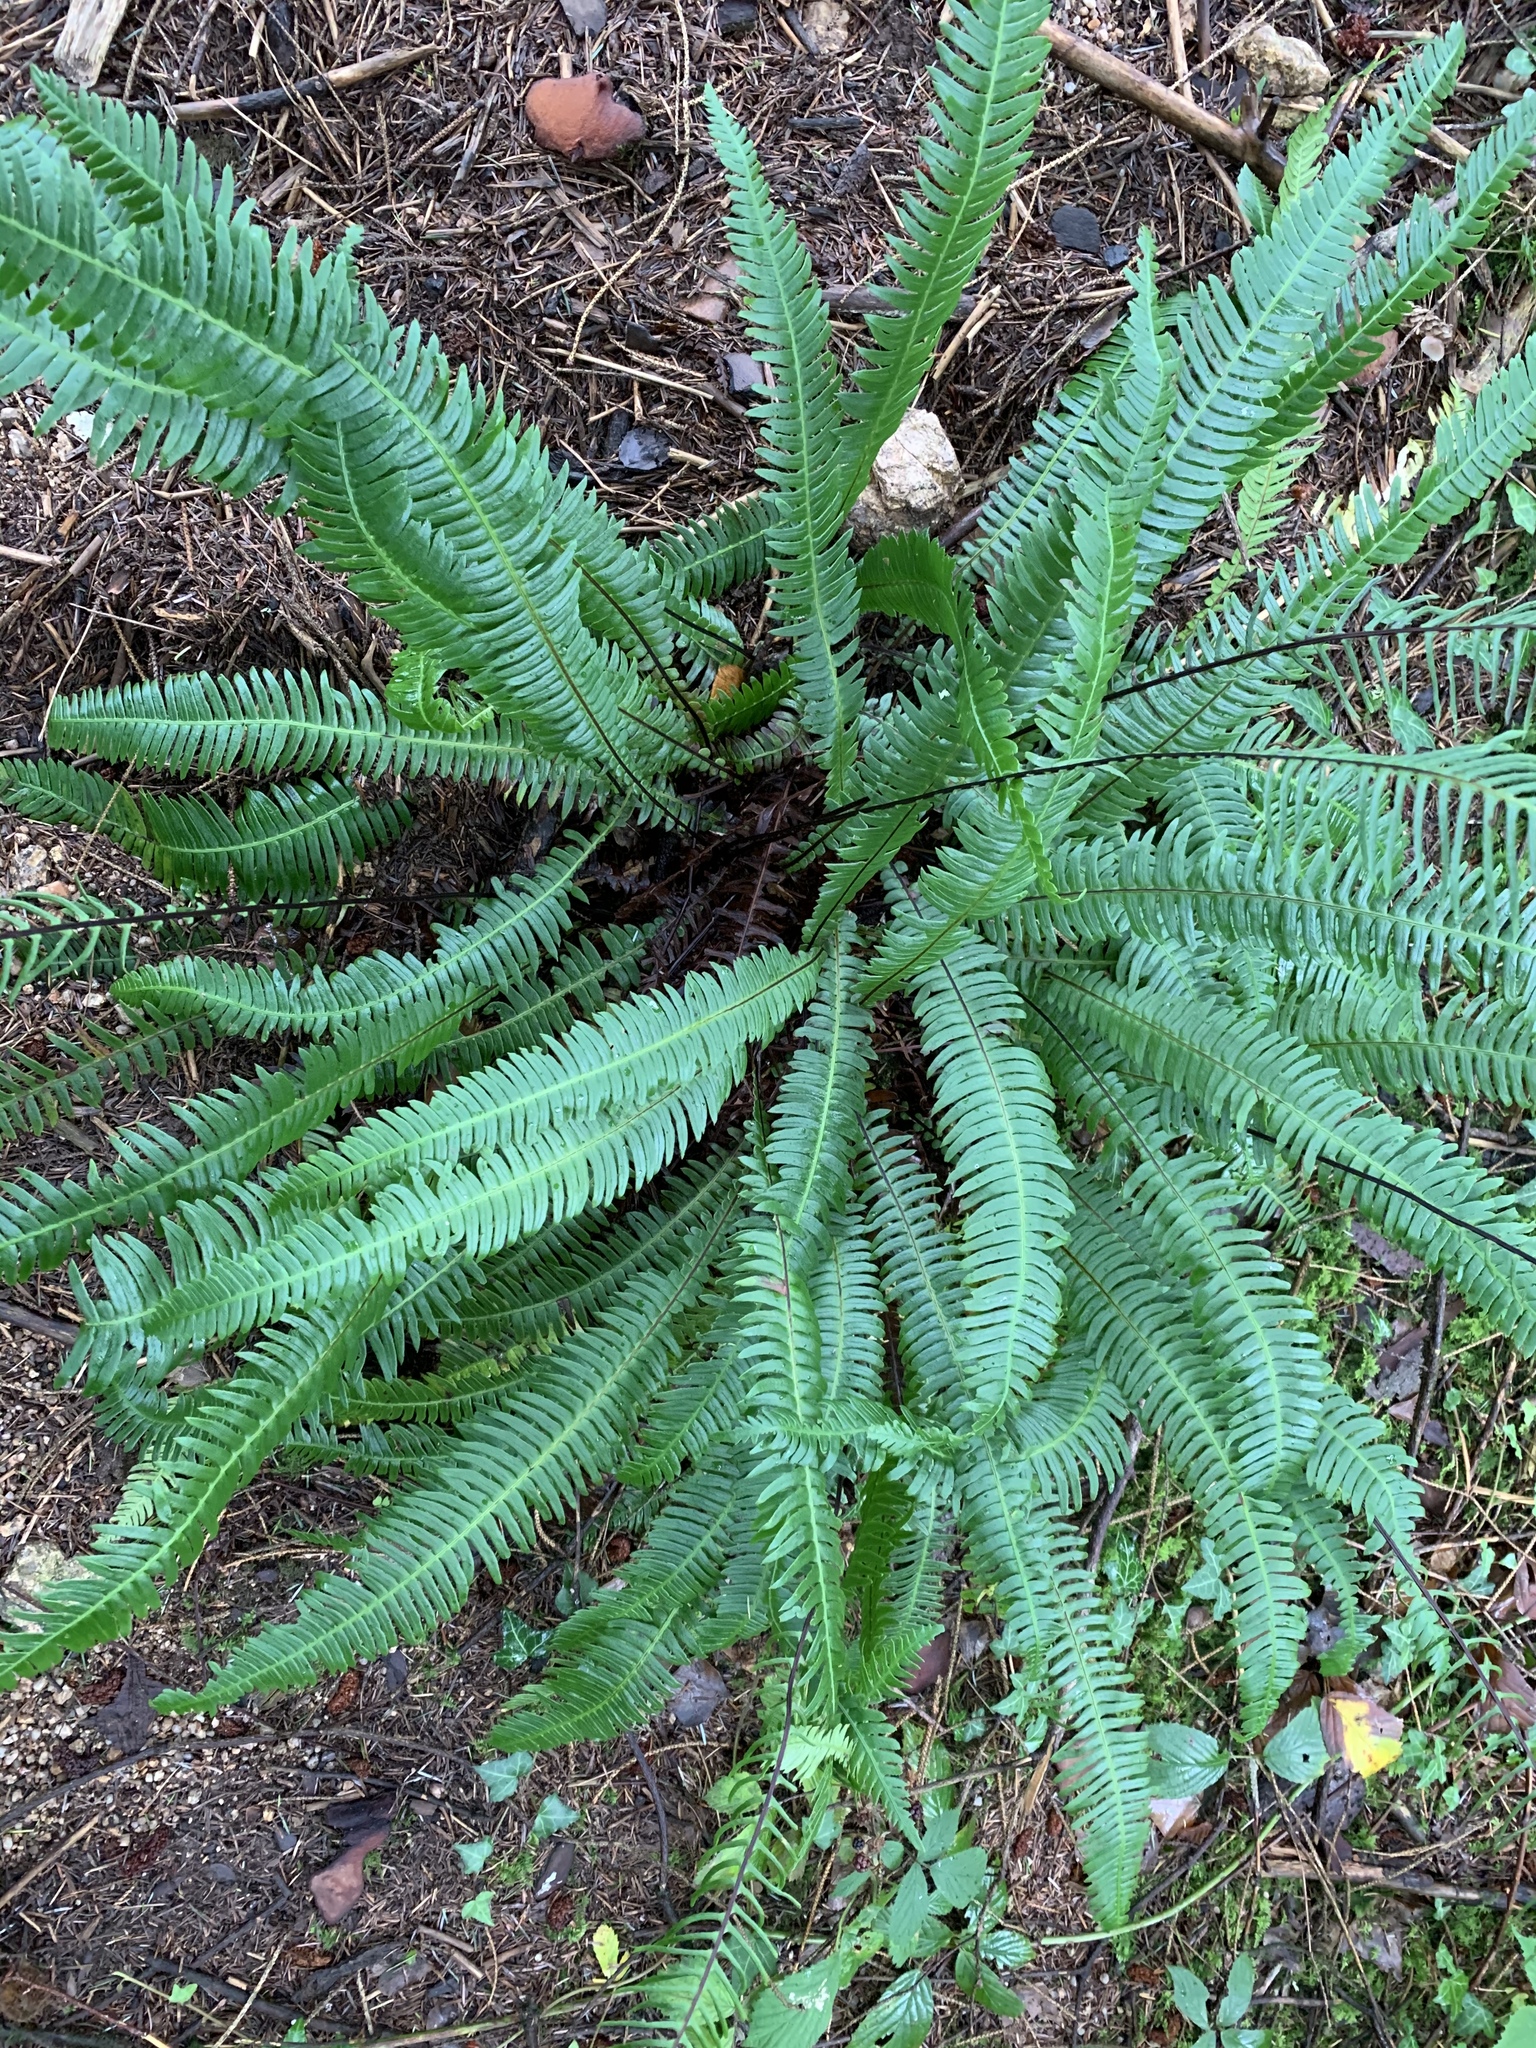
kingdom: Plantae
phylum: Tracheophyta
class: Polypodiopsida
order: Polypodiales
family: Blechnaceae
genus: Struthiopteris
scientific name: Struthiopteris spicant
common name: Deer fern
